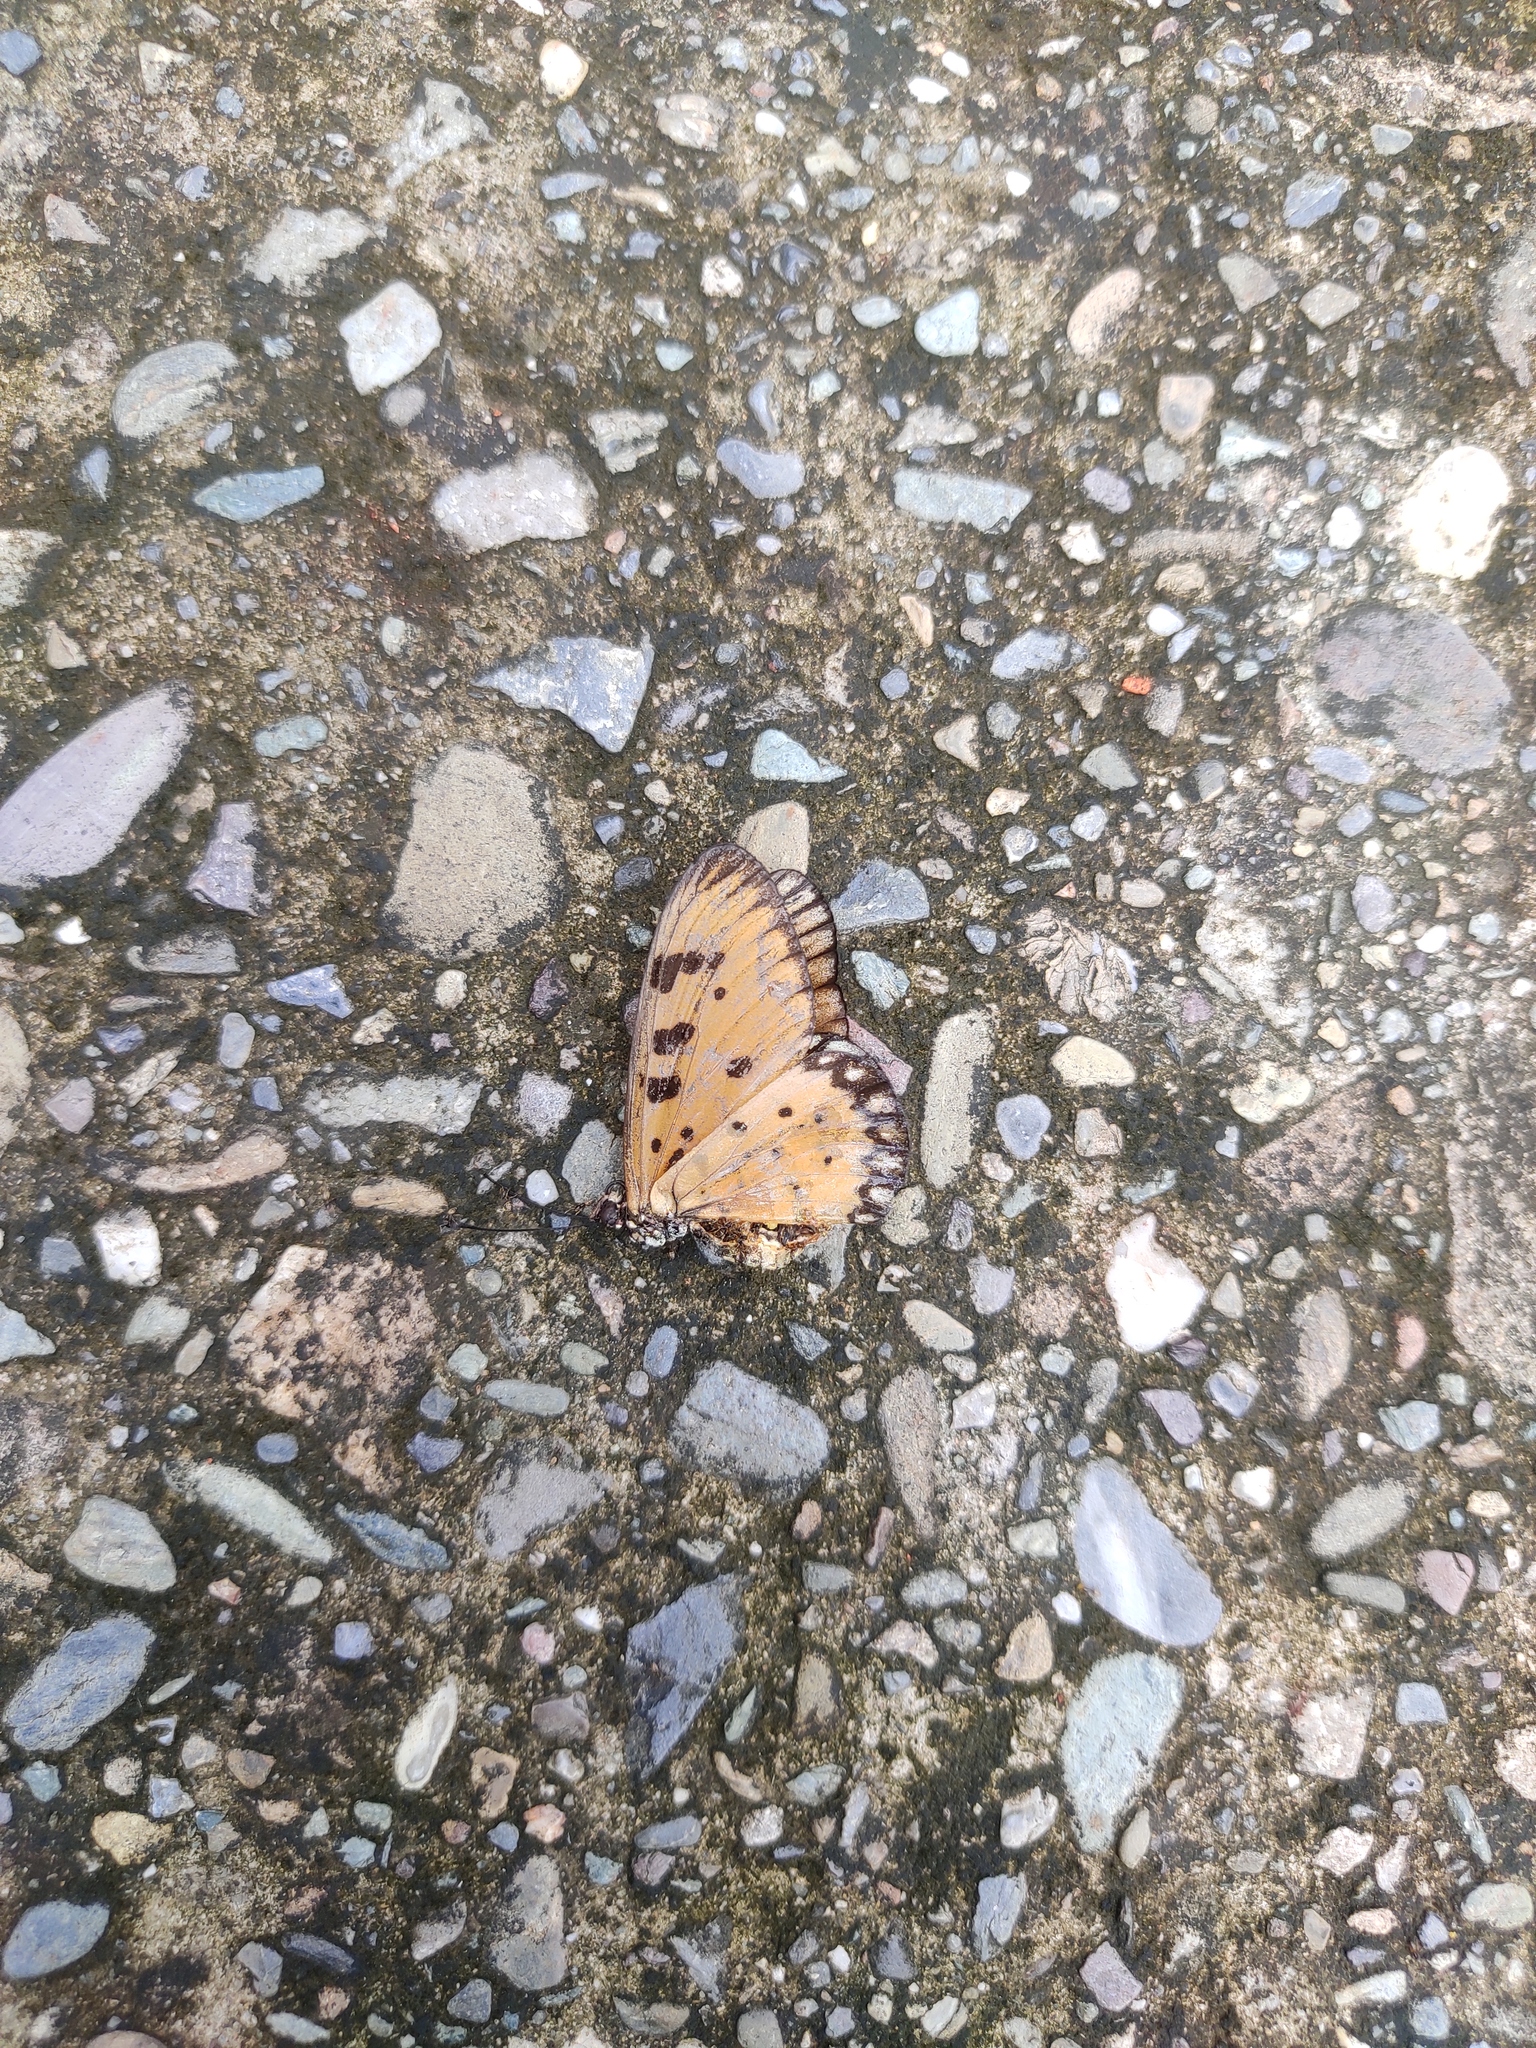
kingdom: Animalia
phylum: Arthropoda
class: Insecta
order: Lepidoptera
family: Nymphalidae
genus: Acraea
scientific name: Acraea terpsicore
